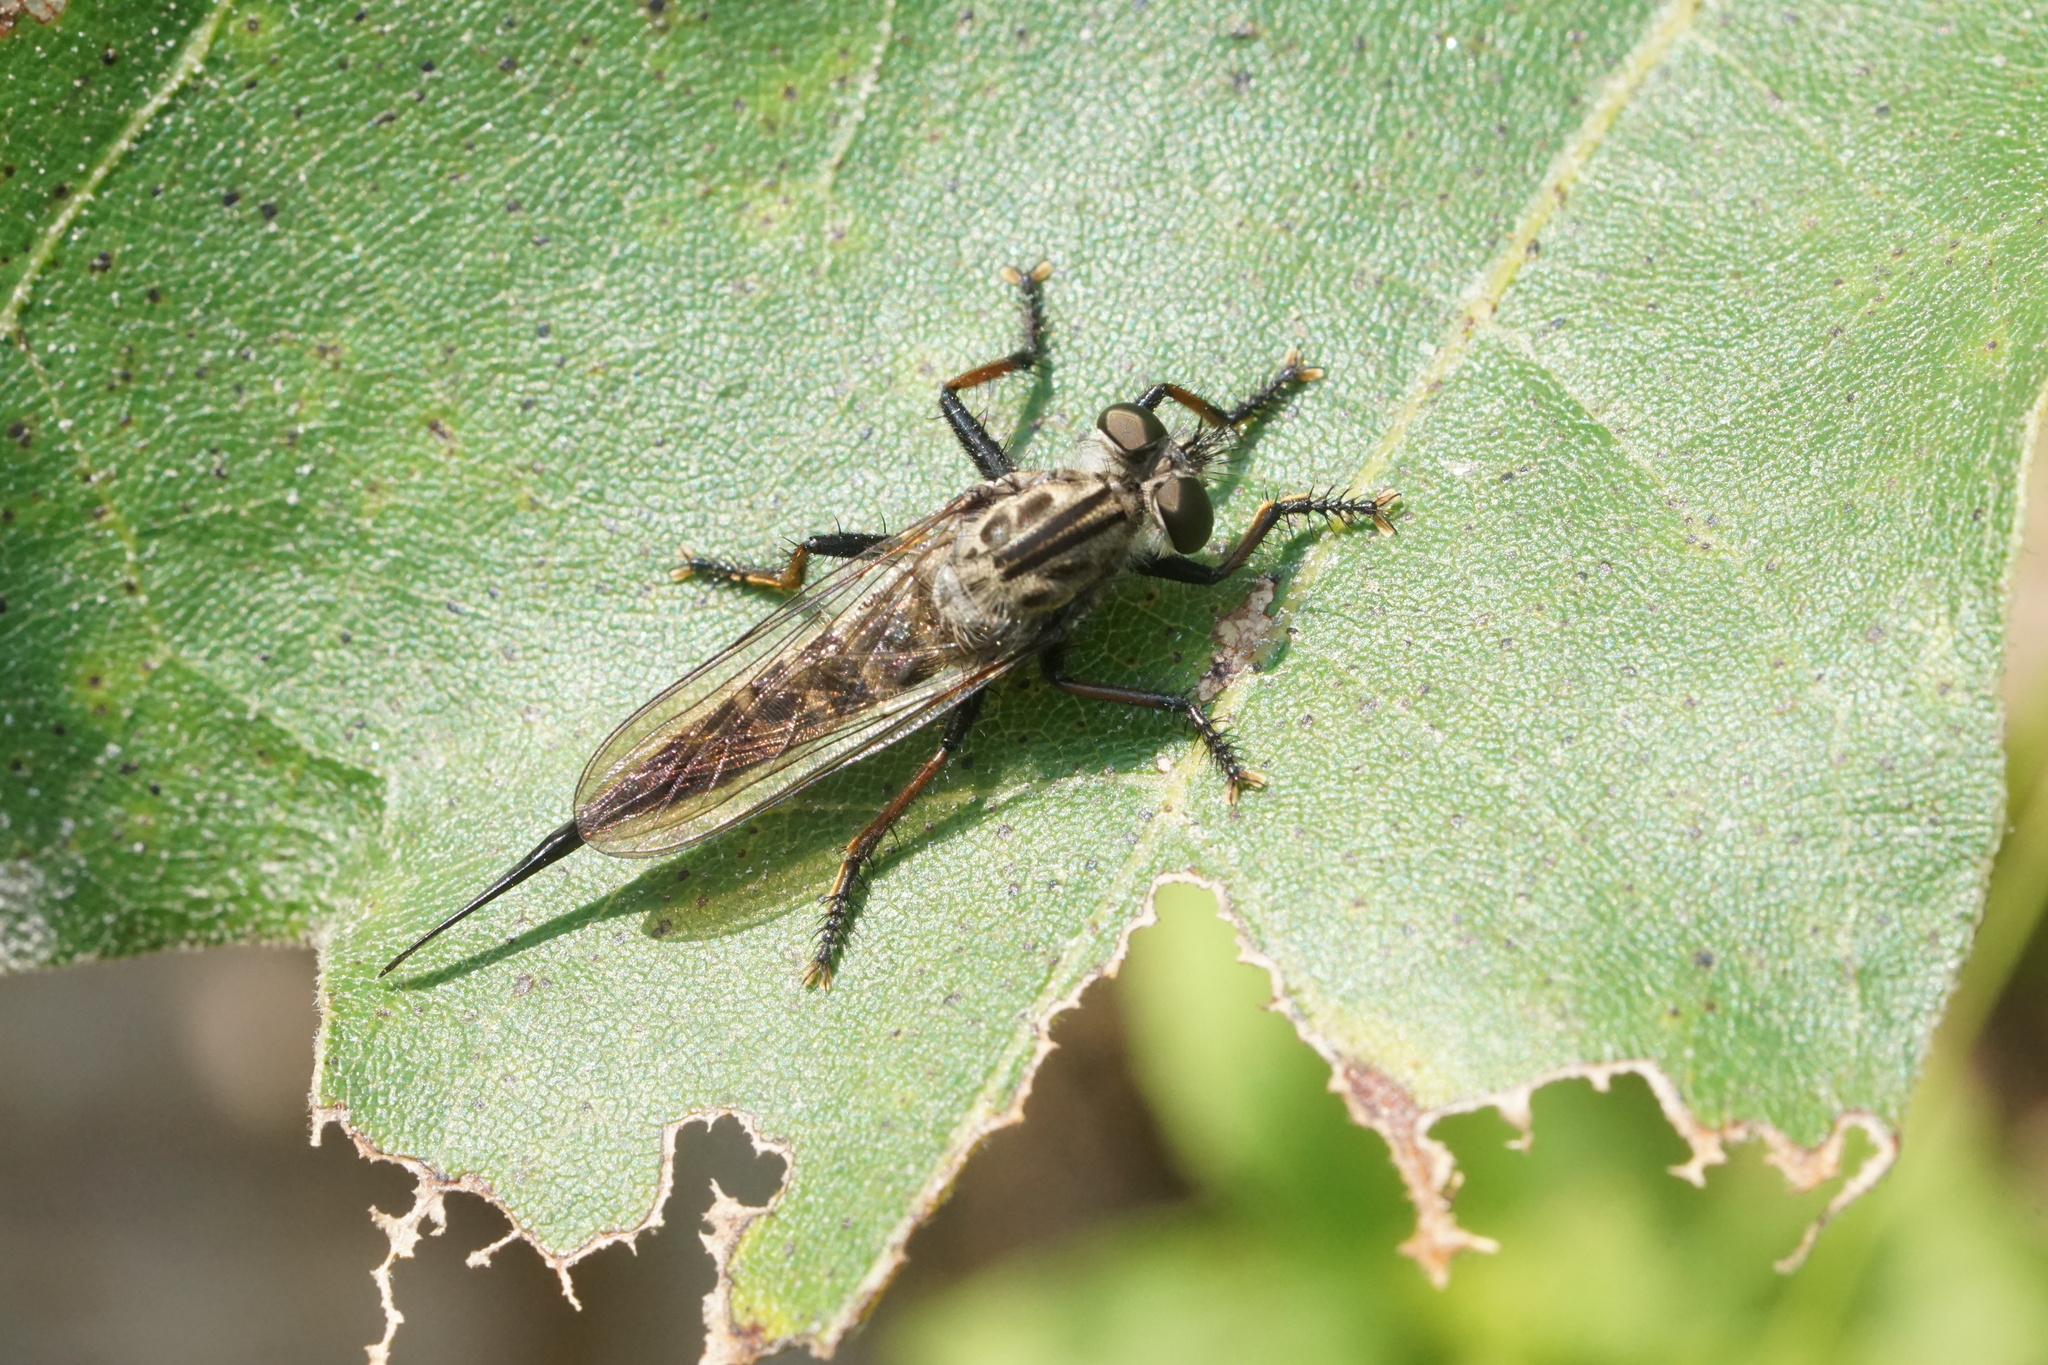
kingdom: Animalia
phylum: Arthropoda
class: Insecta
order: Diptera
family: Asilidae
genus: Efferia
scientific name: Efferia aestuans
